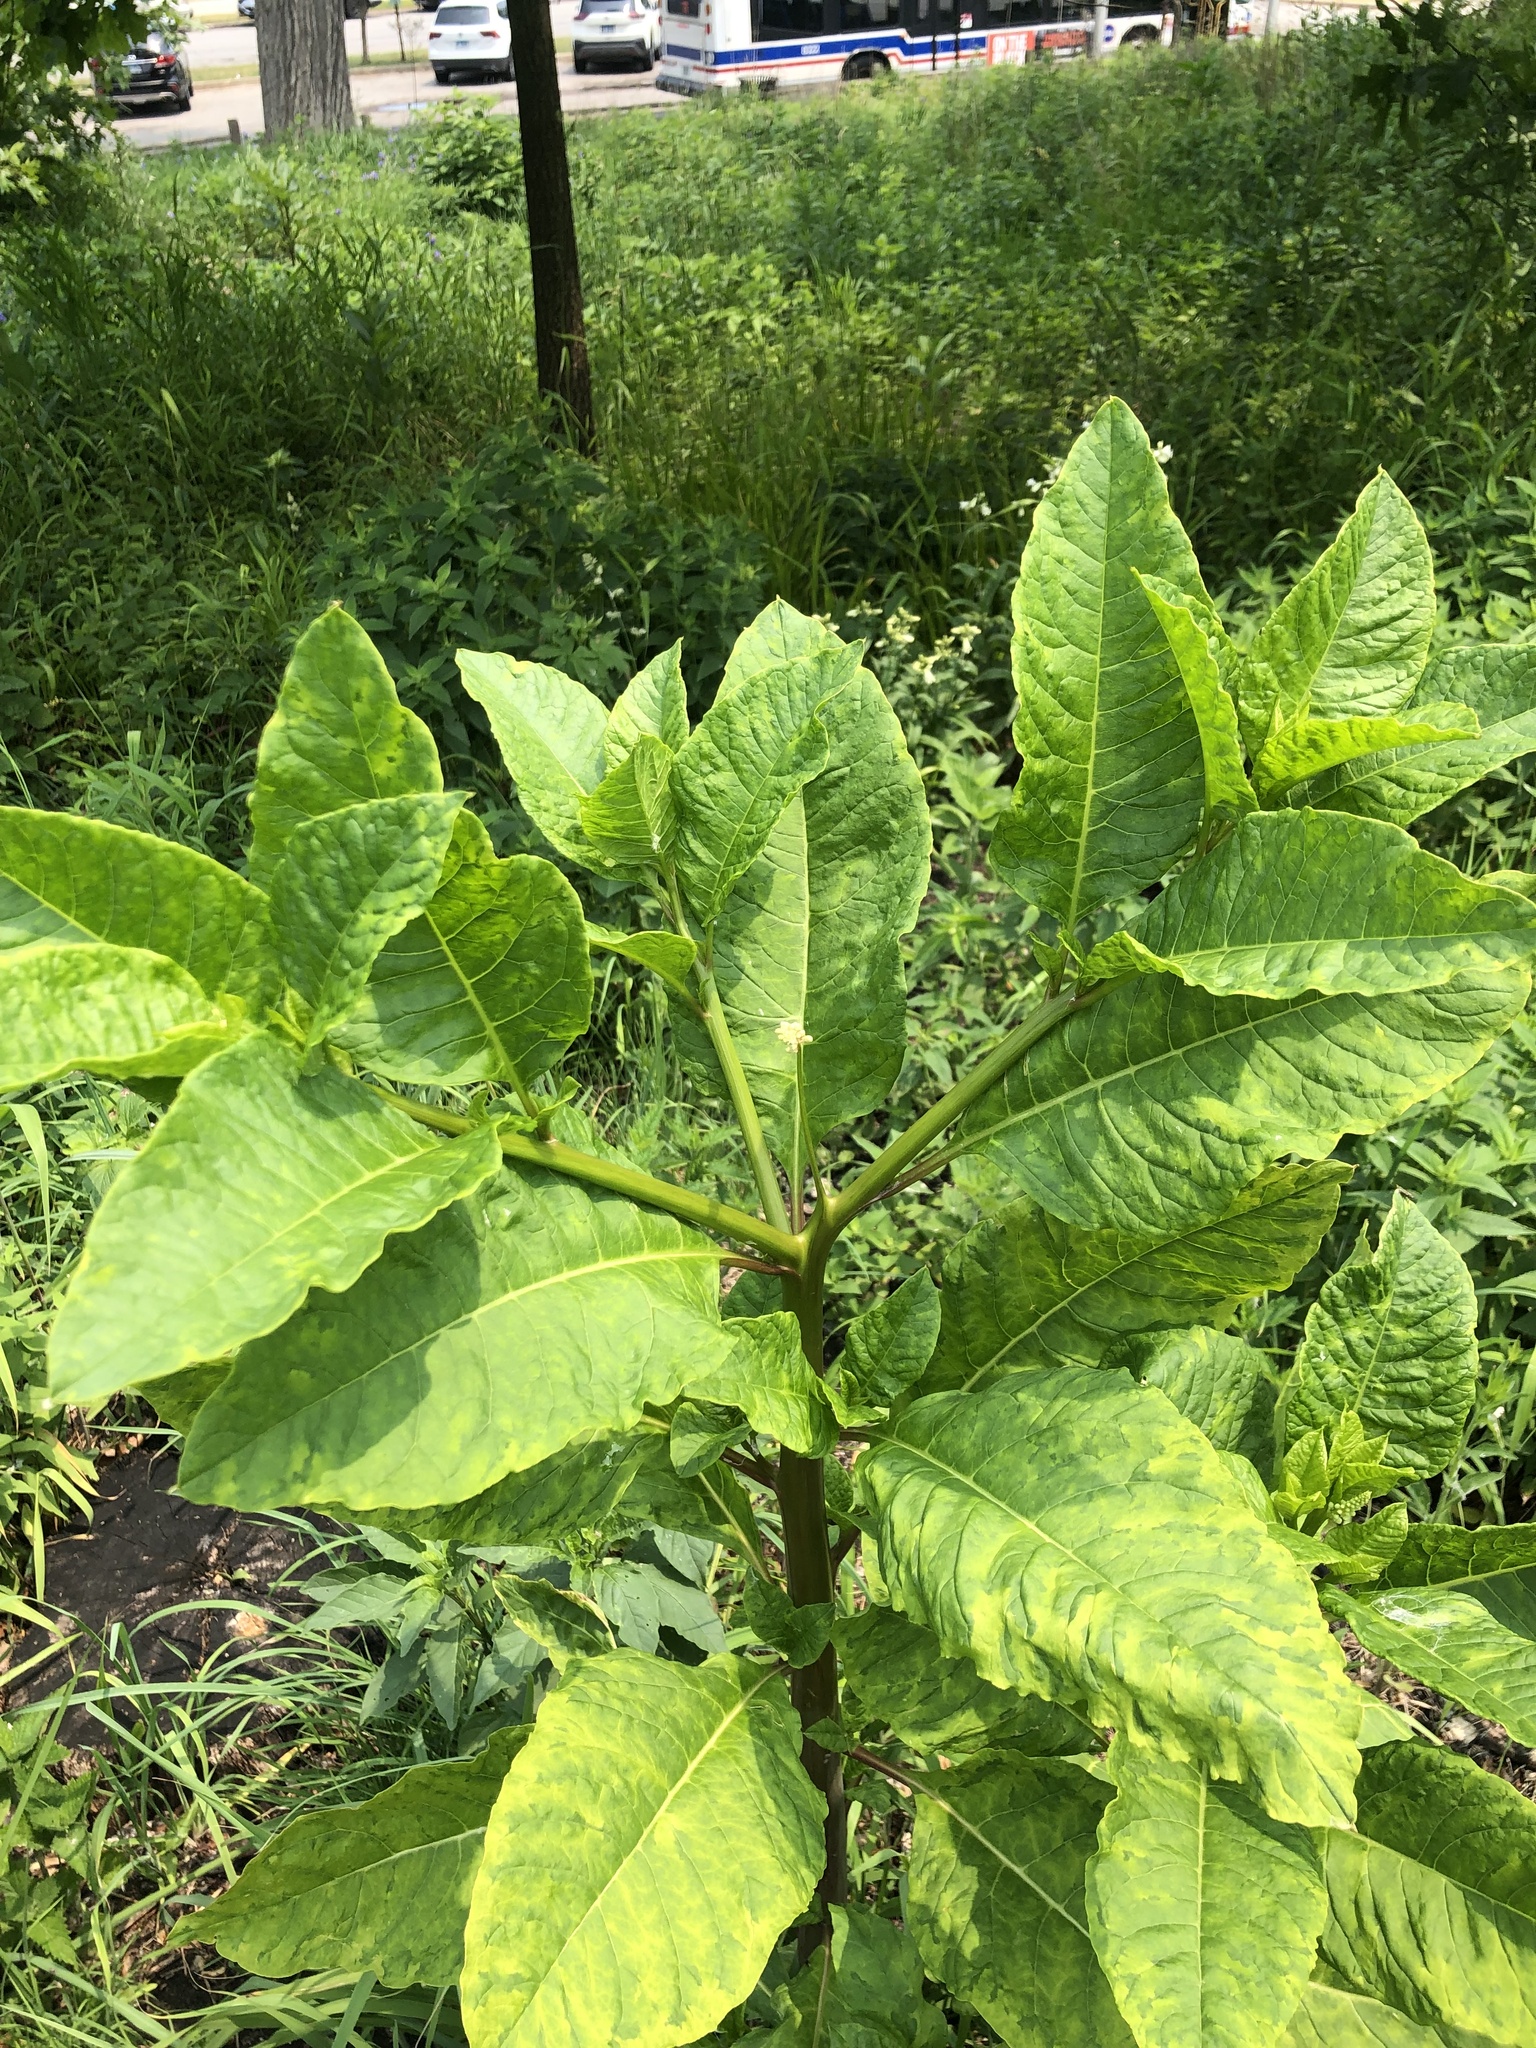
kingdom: Plantae
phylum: Tracheophyta
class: Magnoliopsida
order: Caryophyllales
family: Phytolaccaceae
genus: Phytolacca
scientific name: Phytolacca americana
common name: American pokeweed
